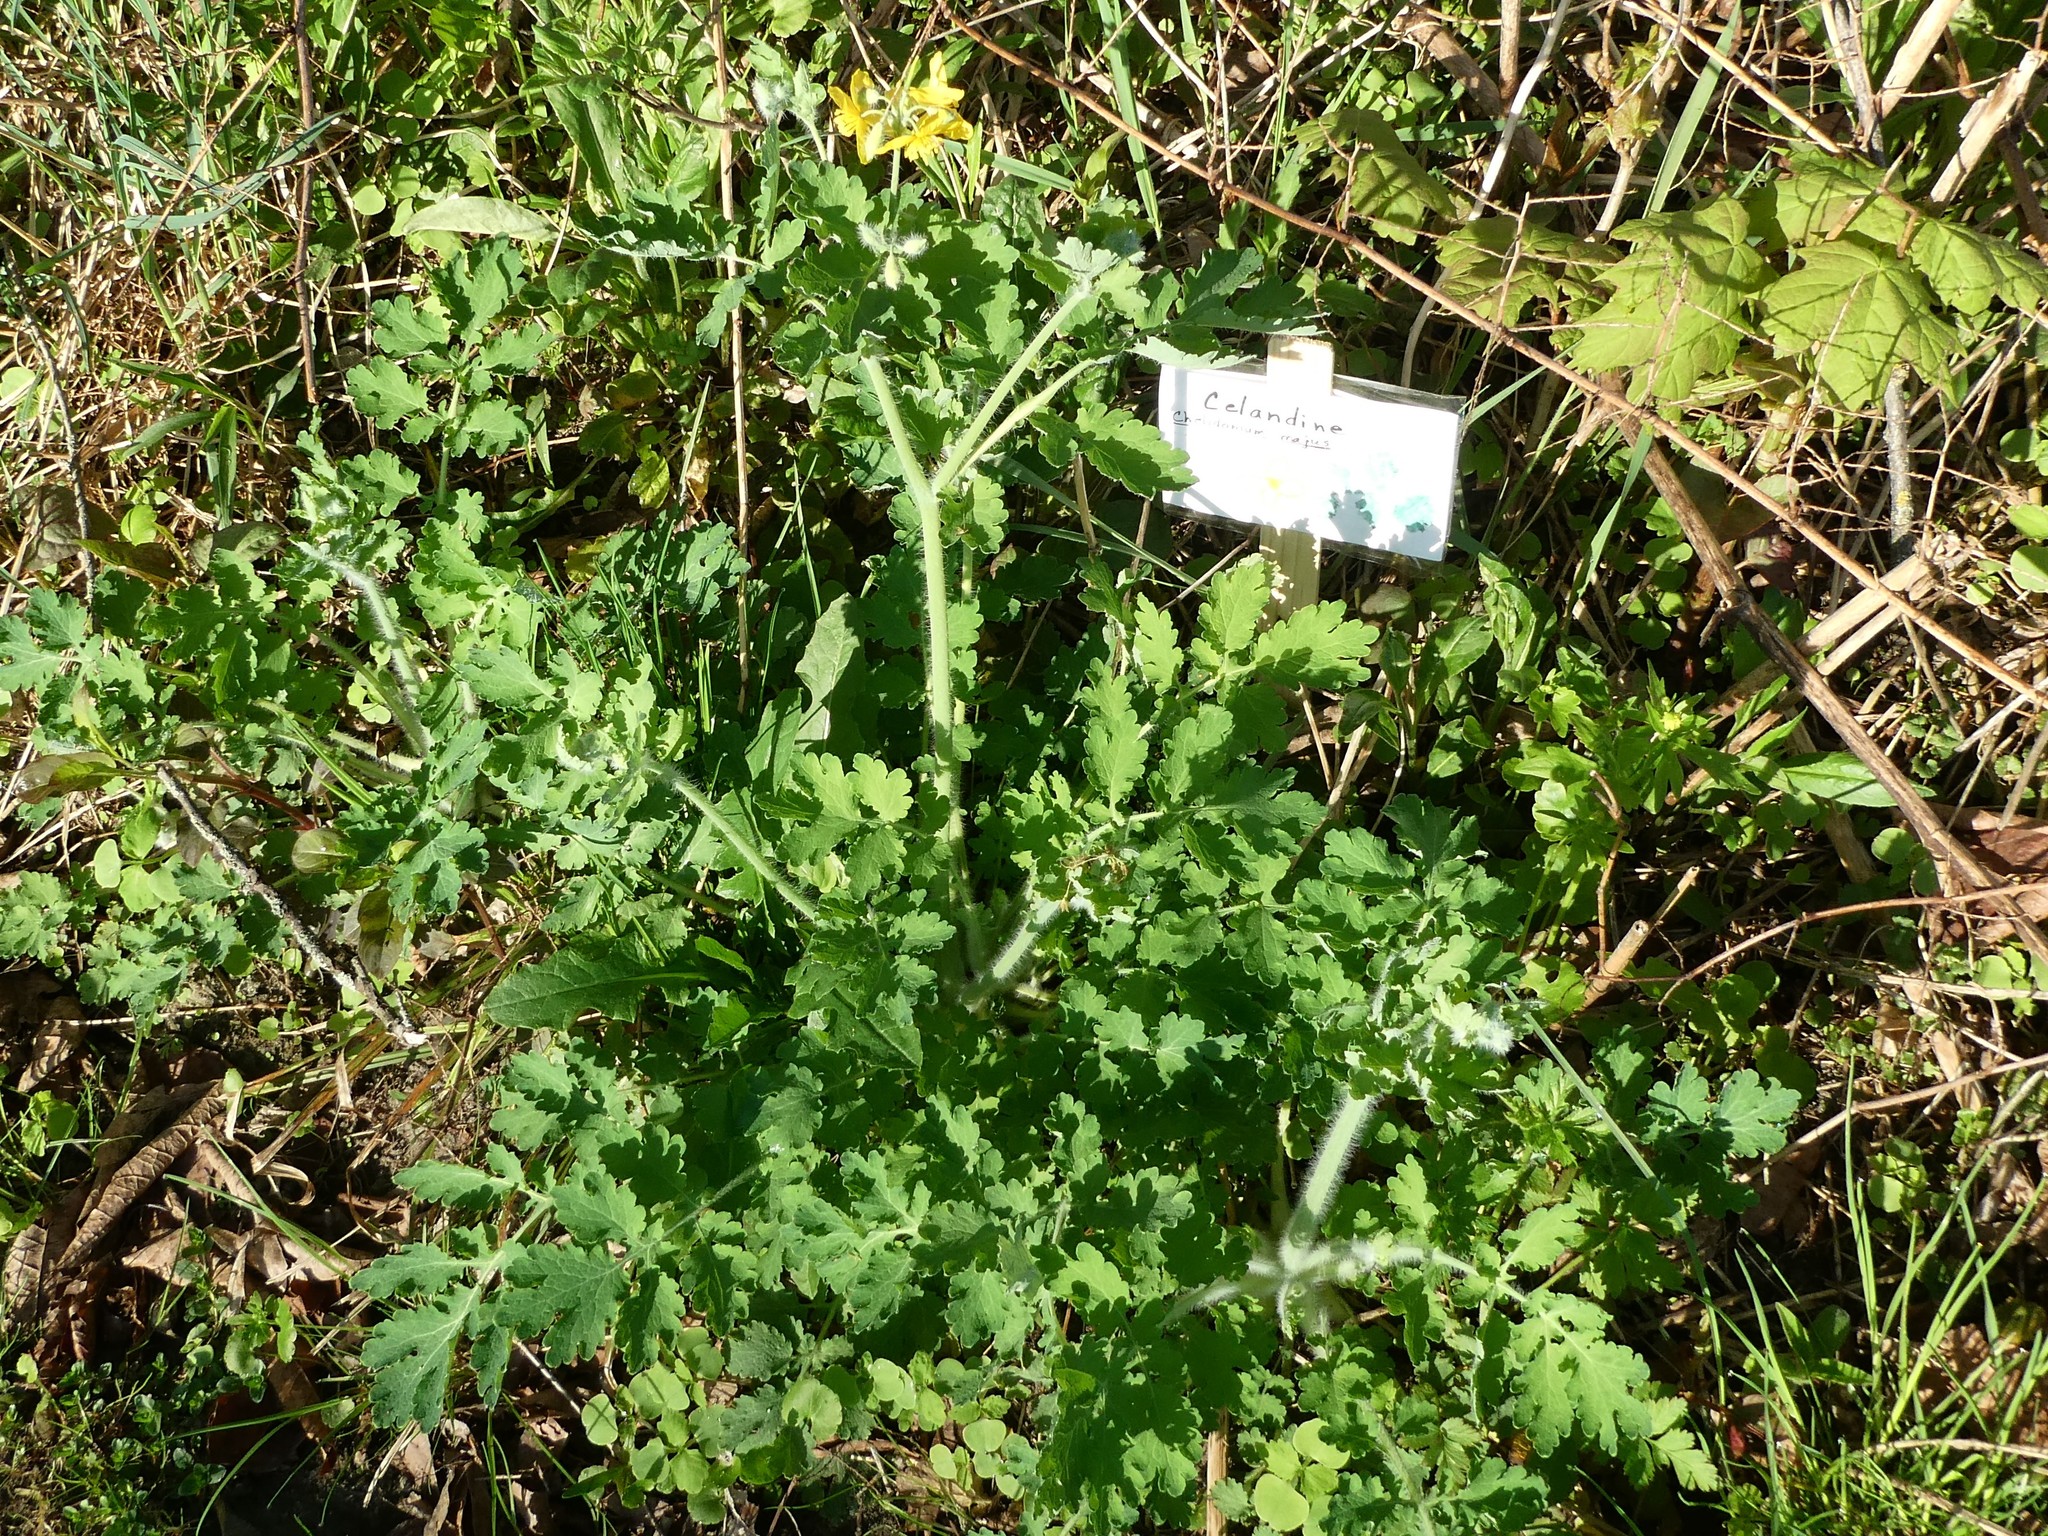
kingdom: Plantae
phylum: Tracheophyta
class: Magnoliopsida
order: Ranunculales
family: Papaveraceae
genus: Chelidonium
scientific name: Chelidonium majus
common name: Greater celandine
